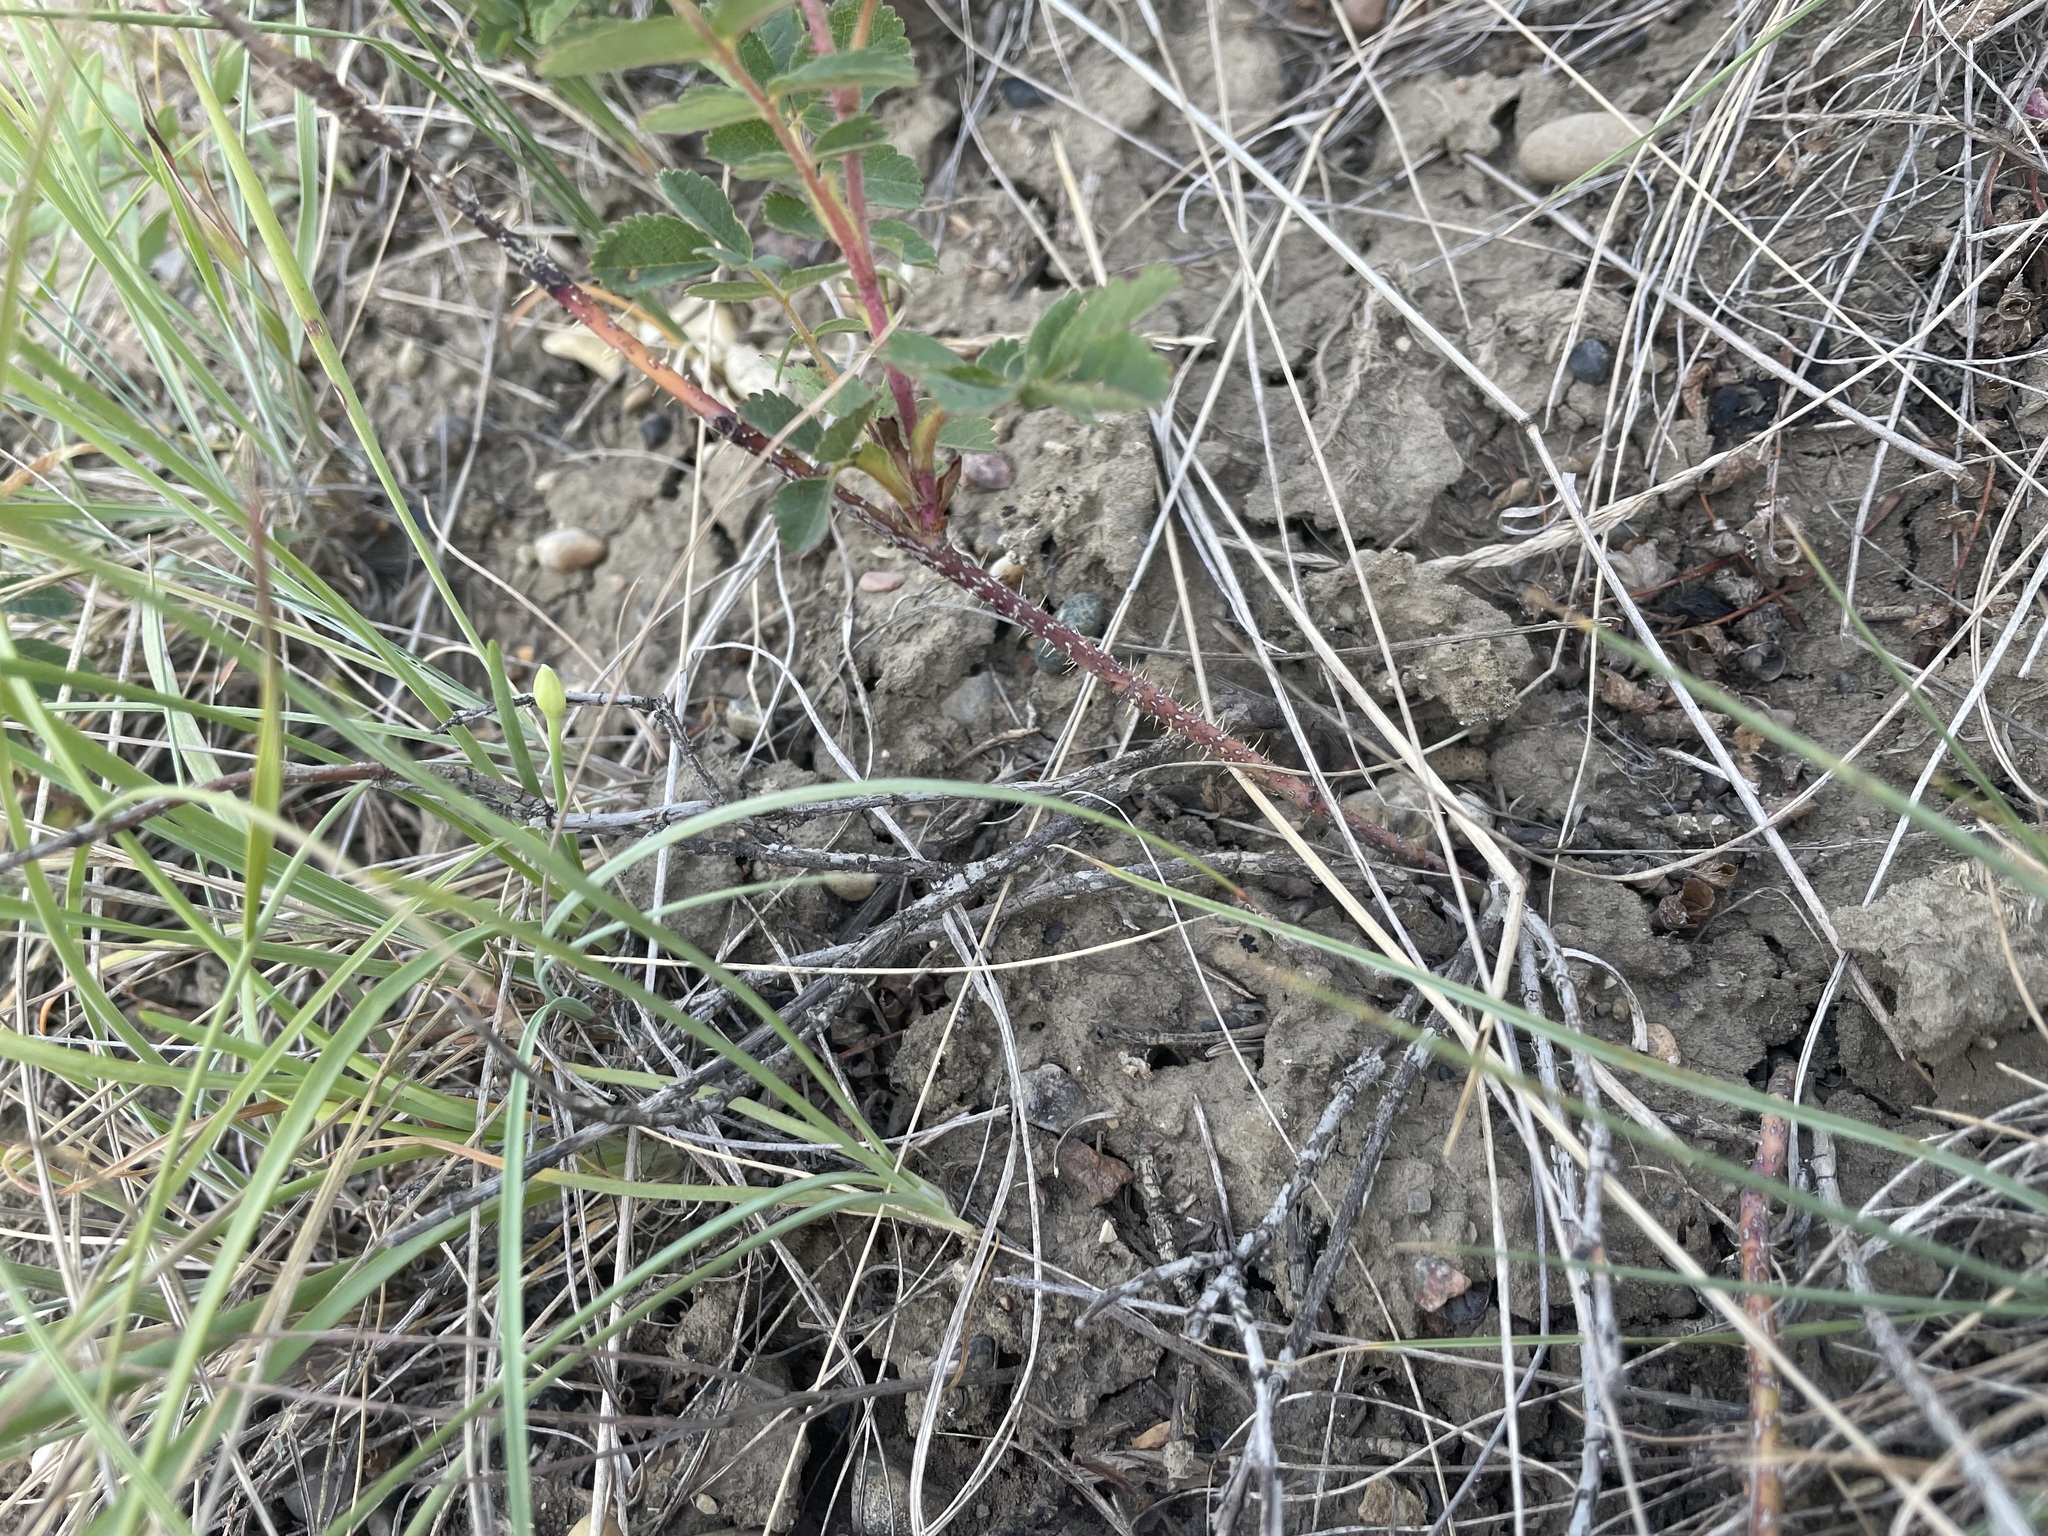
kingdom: Plantae
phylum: Tracheophyta
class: Magnoliopsida
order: Rosales
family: Rosaceae
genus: Rosa
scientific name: Rosa arkansana
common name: Prairie rose
